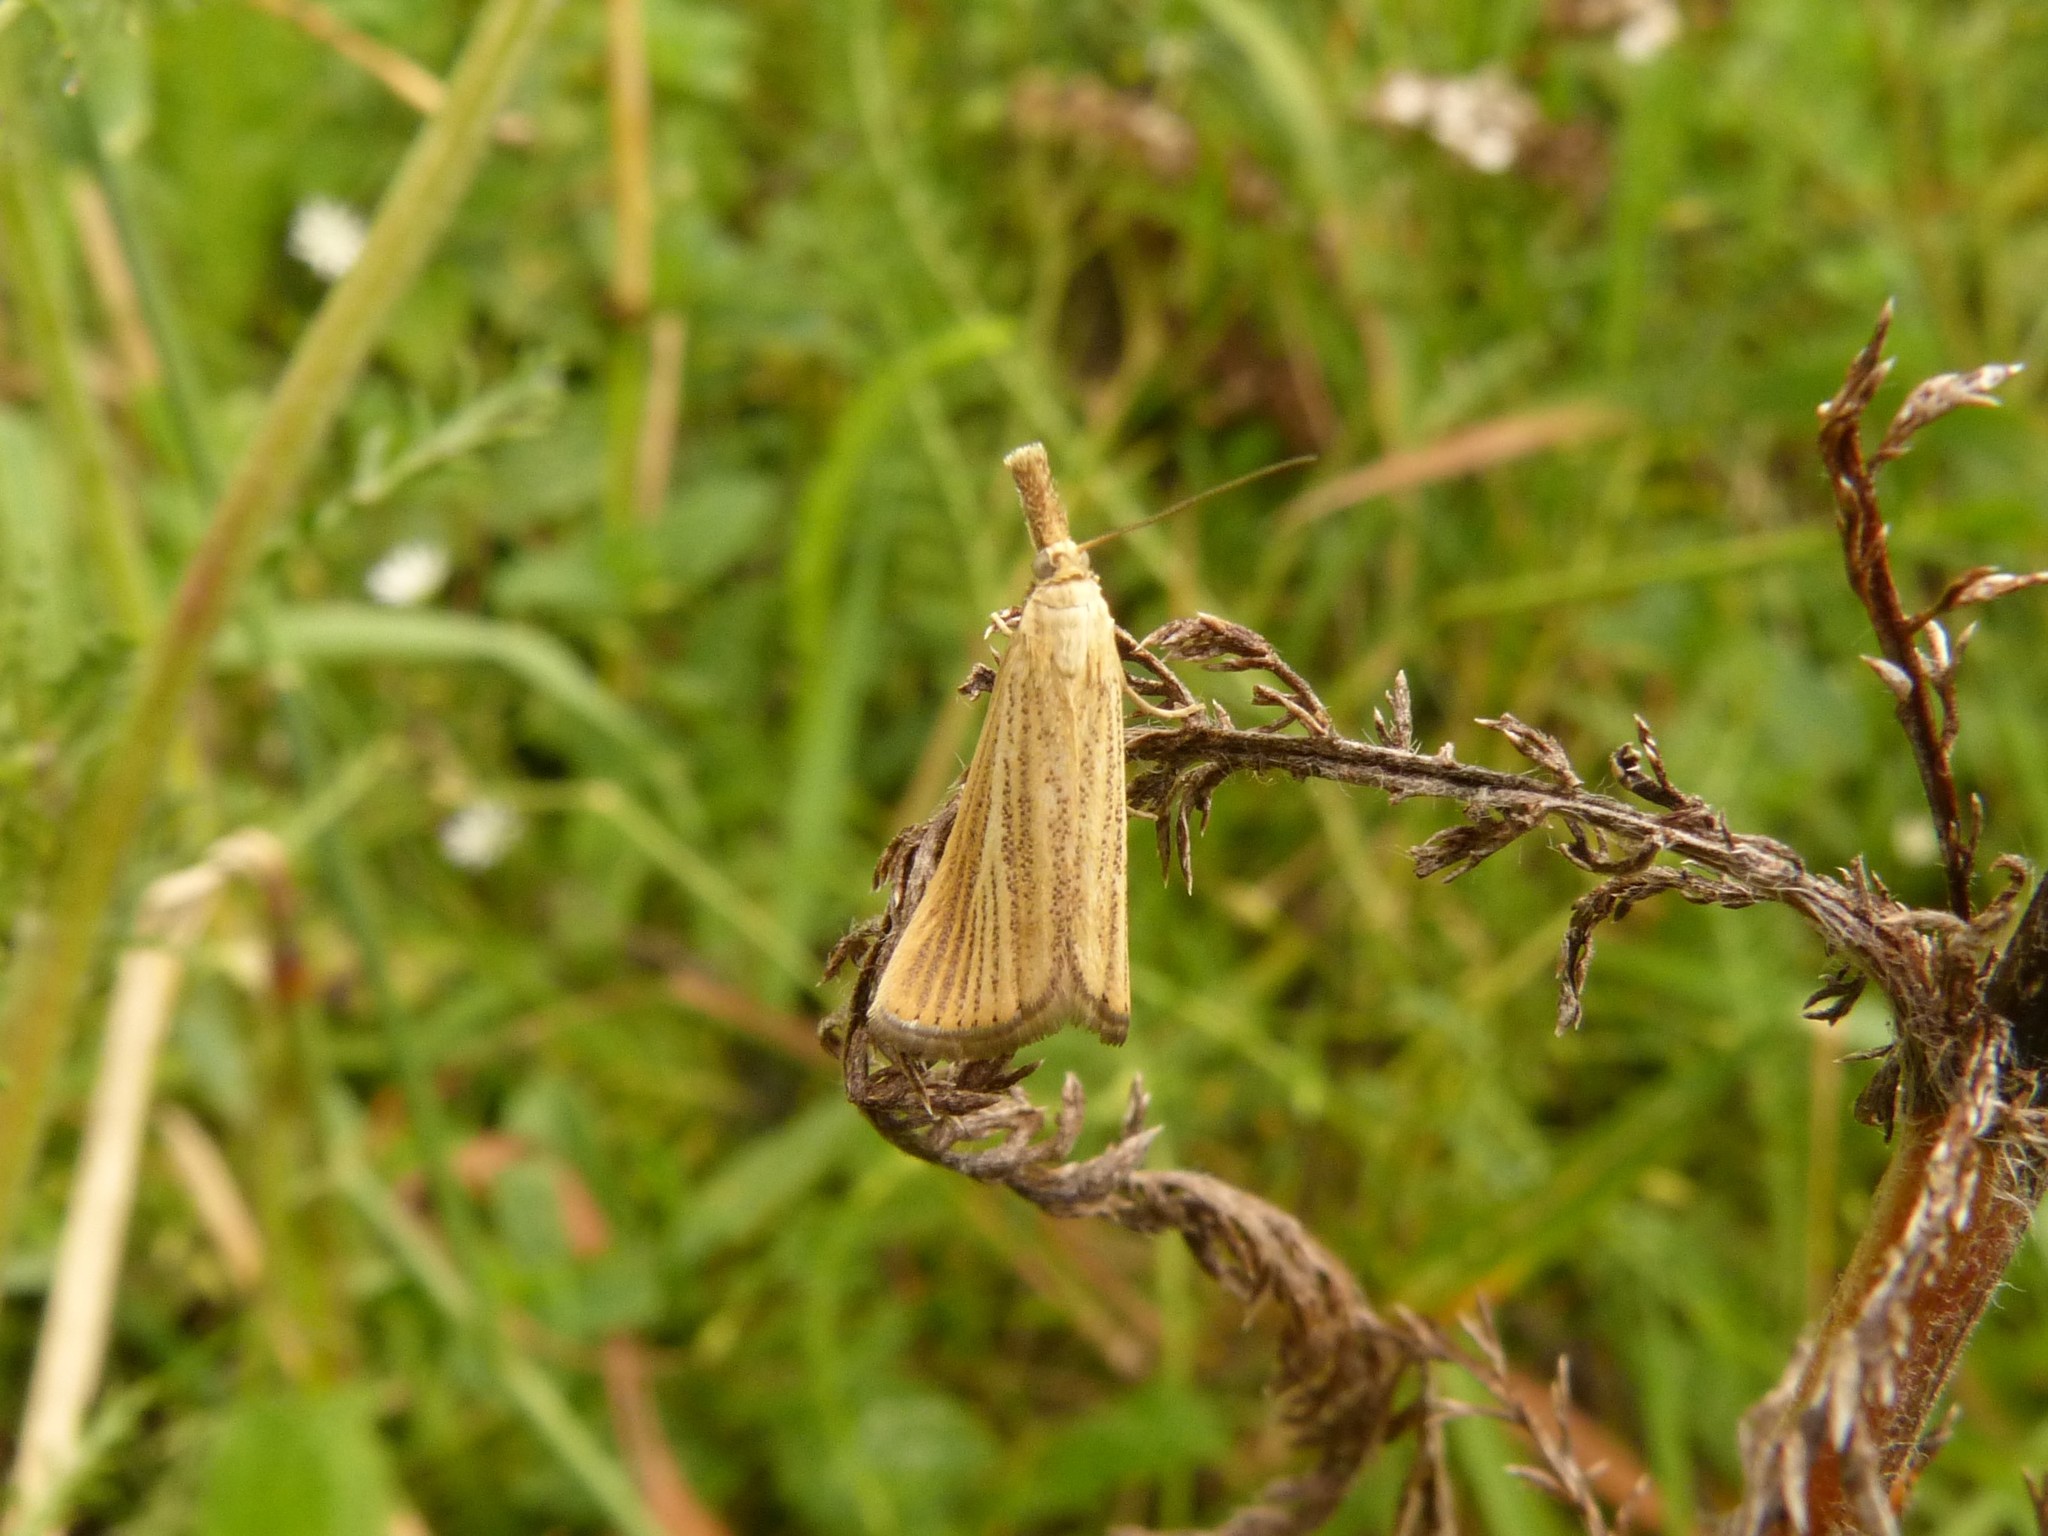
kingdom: Animalia
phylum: Arthropoda
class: Insecta
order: Lepidoptera
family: Crambidae
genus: Agriphila
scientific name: Agriphila straminella
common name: Straw grass-veneer
